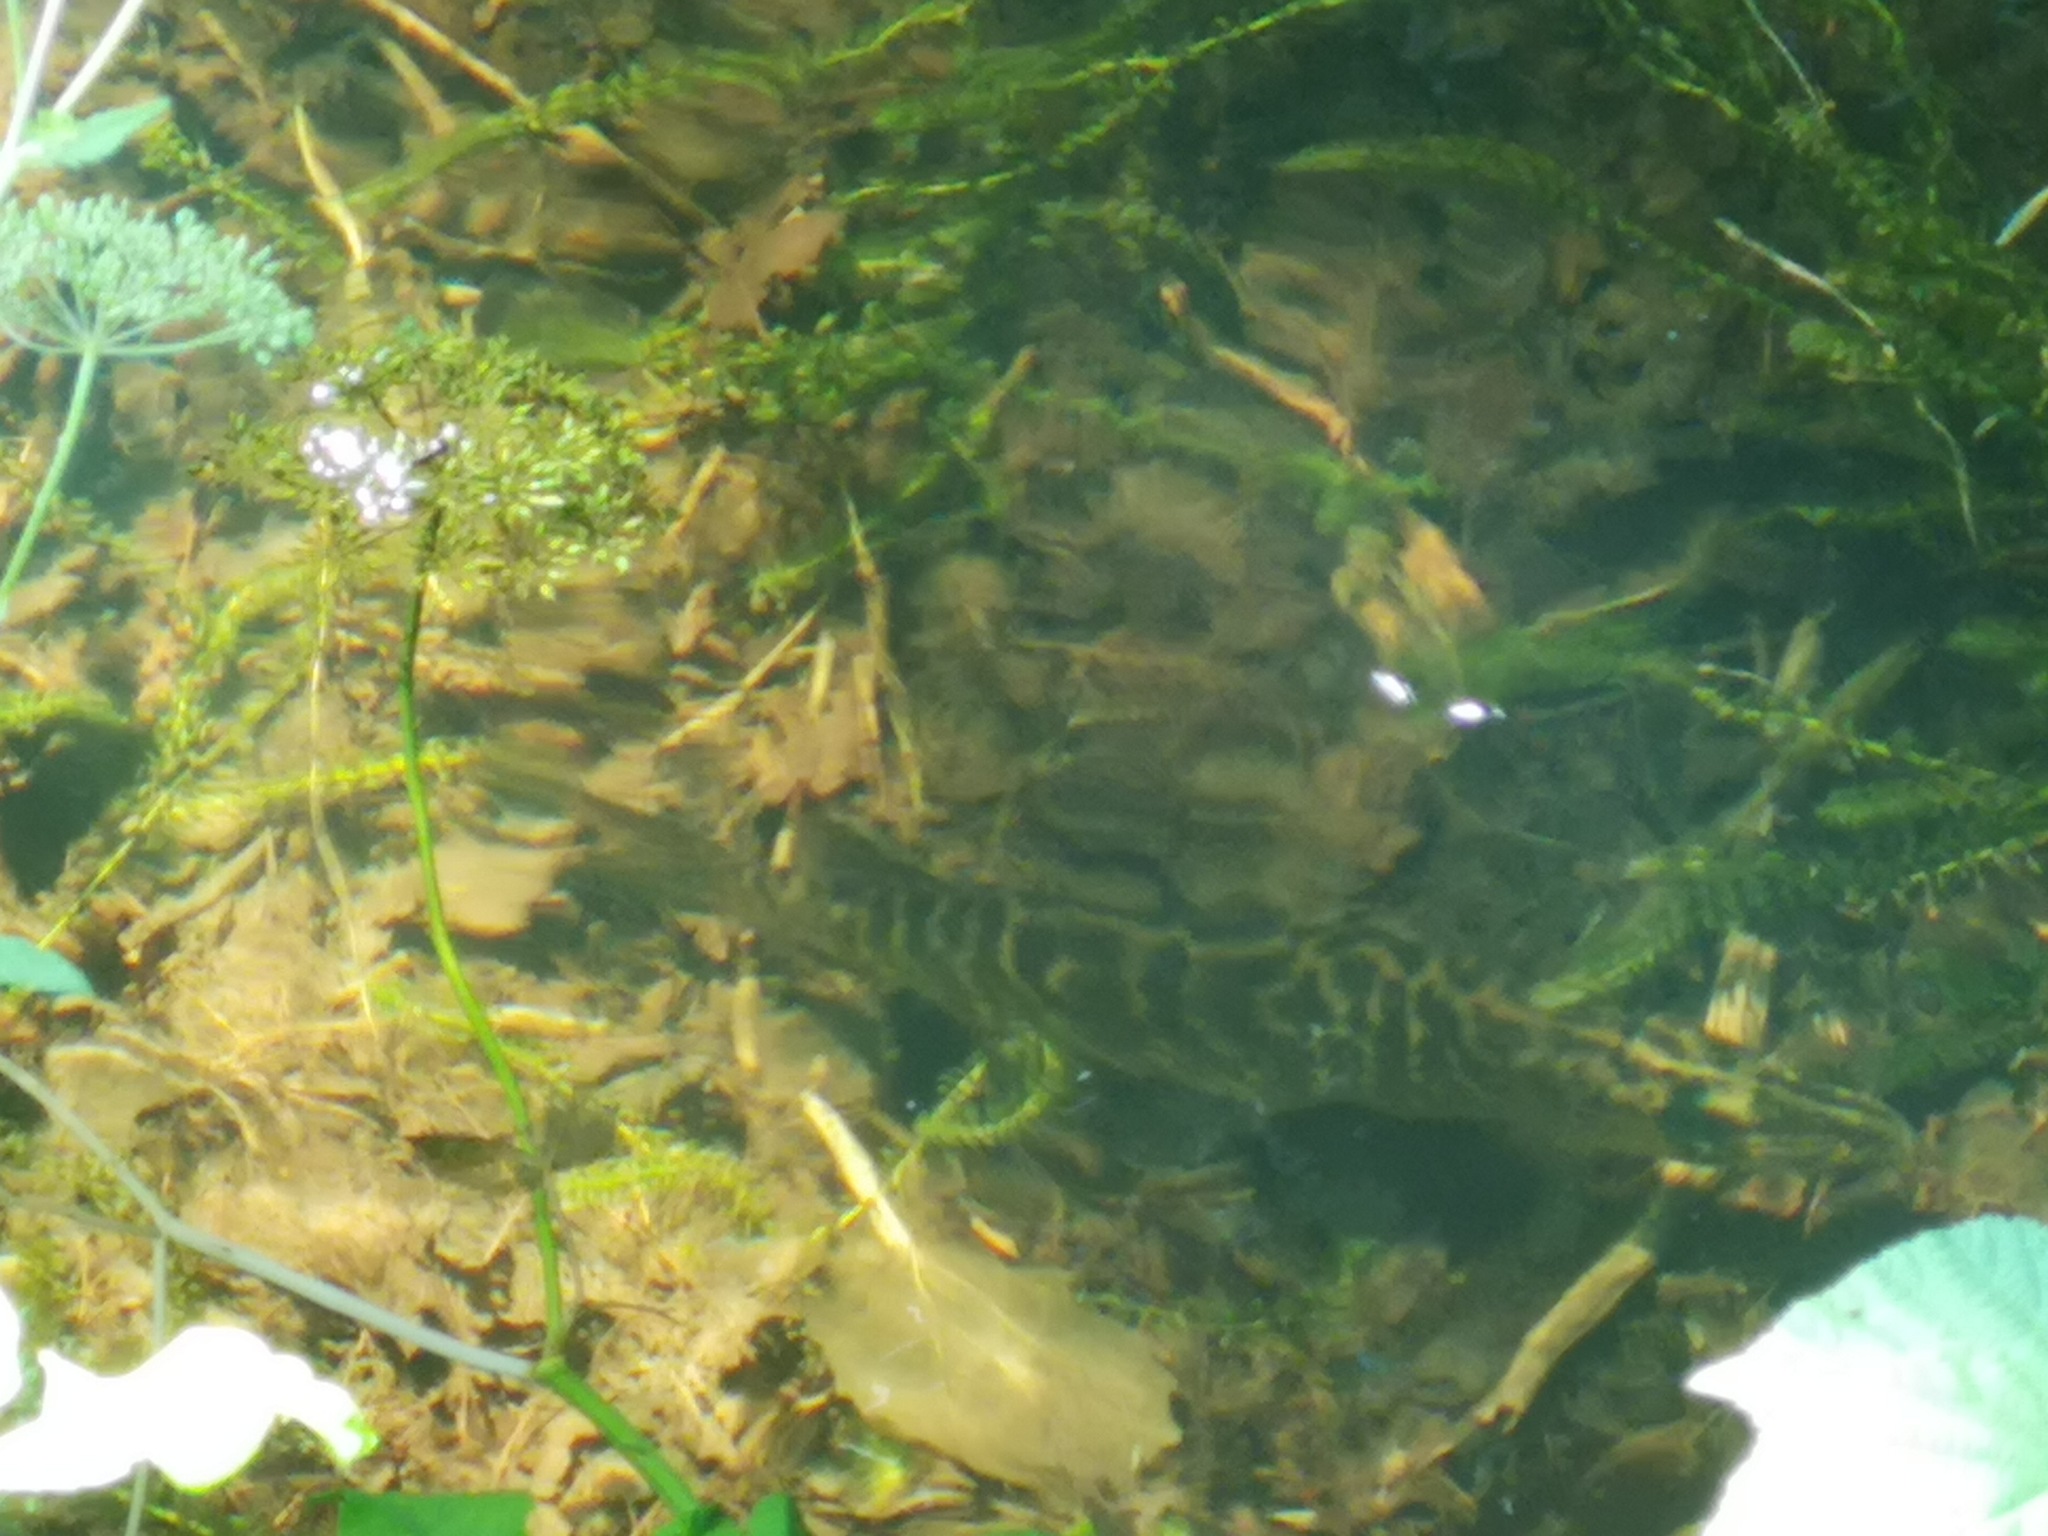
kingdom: Animalia
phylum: Chordata
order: Esociformes
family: Esocidae
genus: Esox
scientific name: Esox lucius
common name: Northern pike
